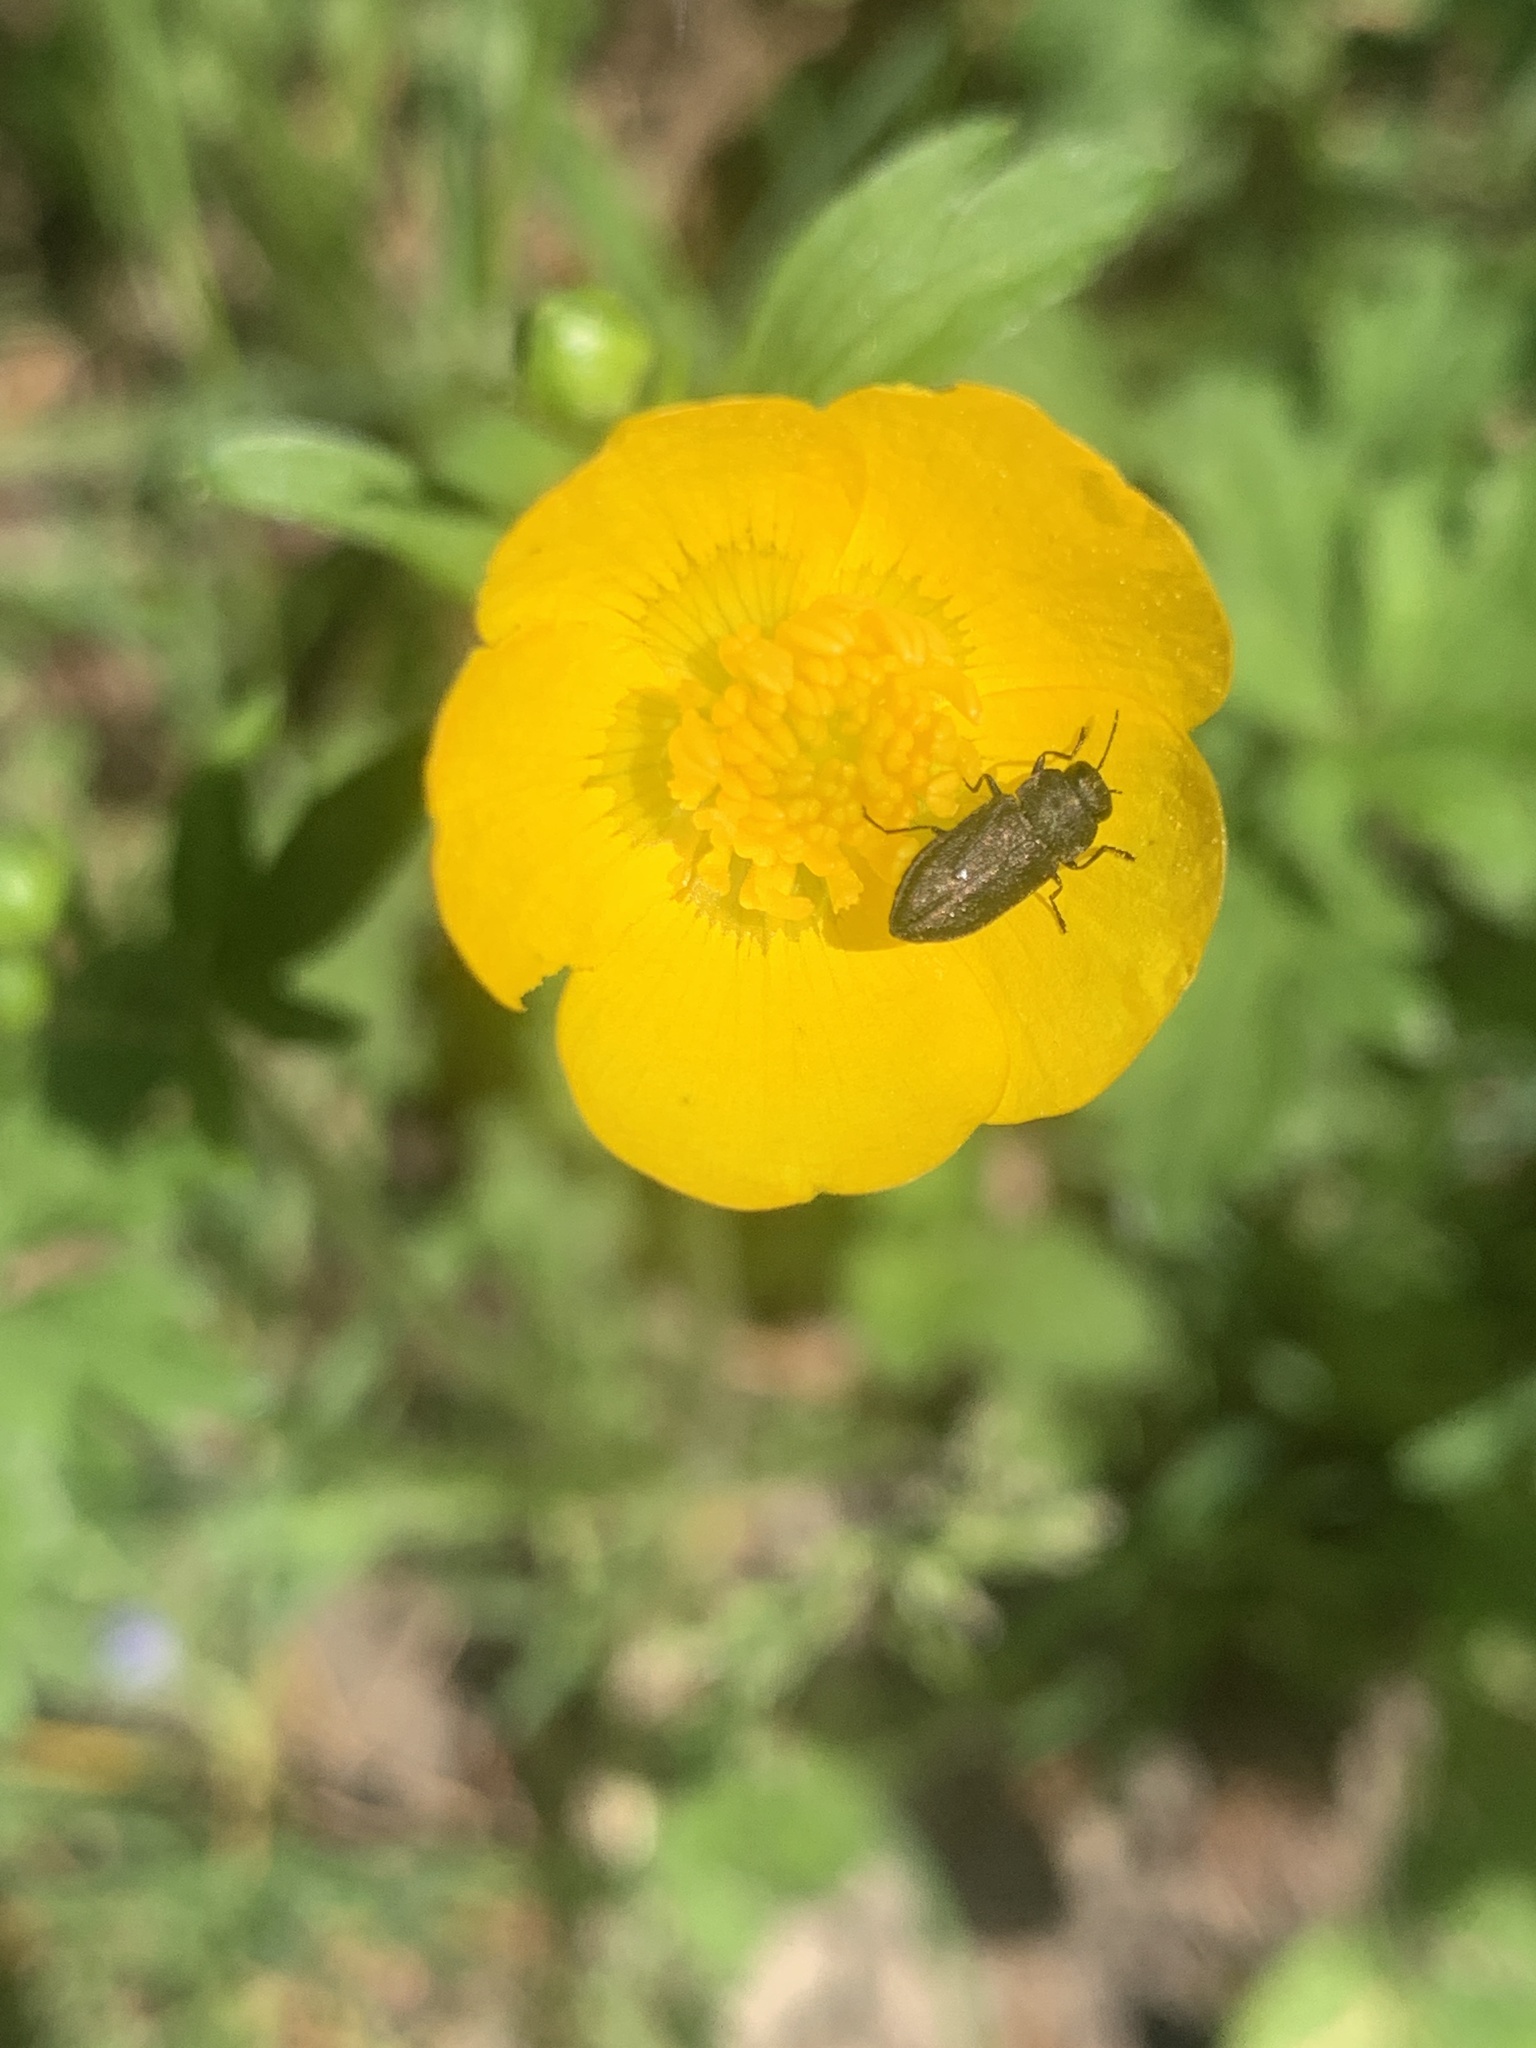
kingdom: Animalia
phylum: Arthropoda
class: Insecta
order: Coleoptera
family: Buprestidae
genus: Anthaxia
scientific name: Anthaxia quadripunctata
